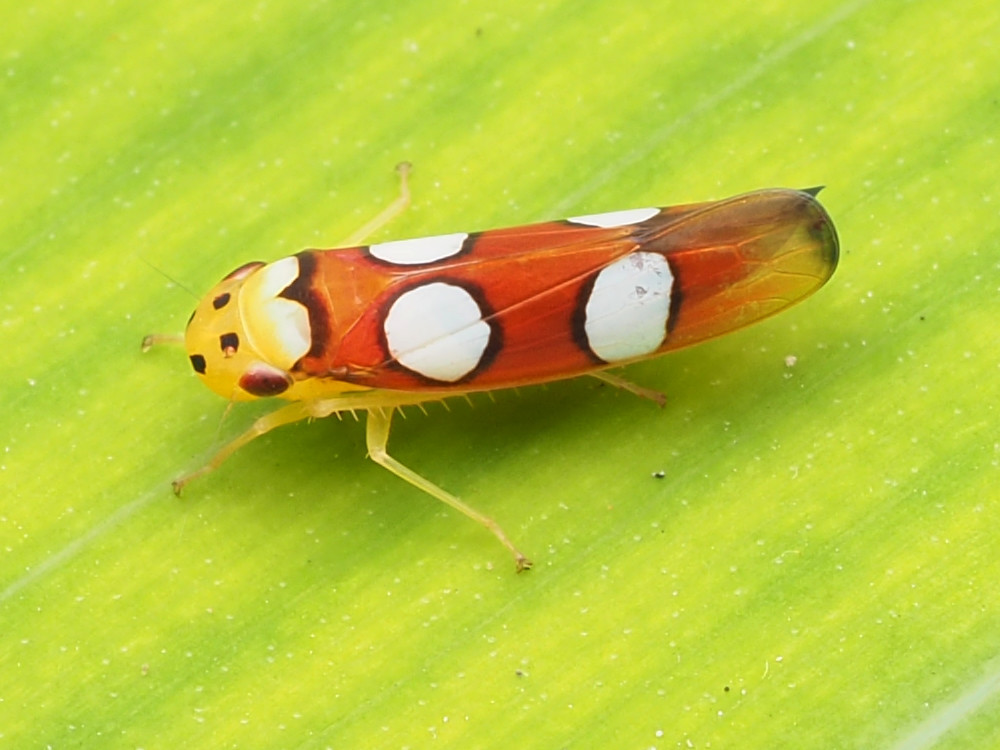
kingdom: Animalia
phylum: Arthropoda
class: Insecta
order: Hemiptera
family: Cicadellidae
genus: Erythrogonia
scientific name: Erythrogonia laudata
